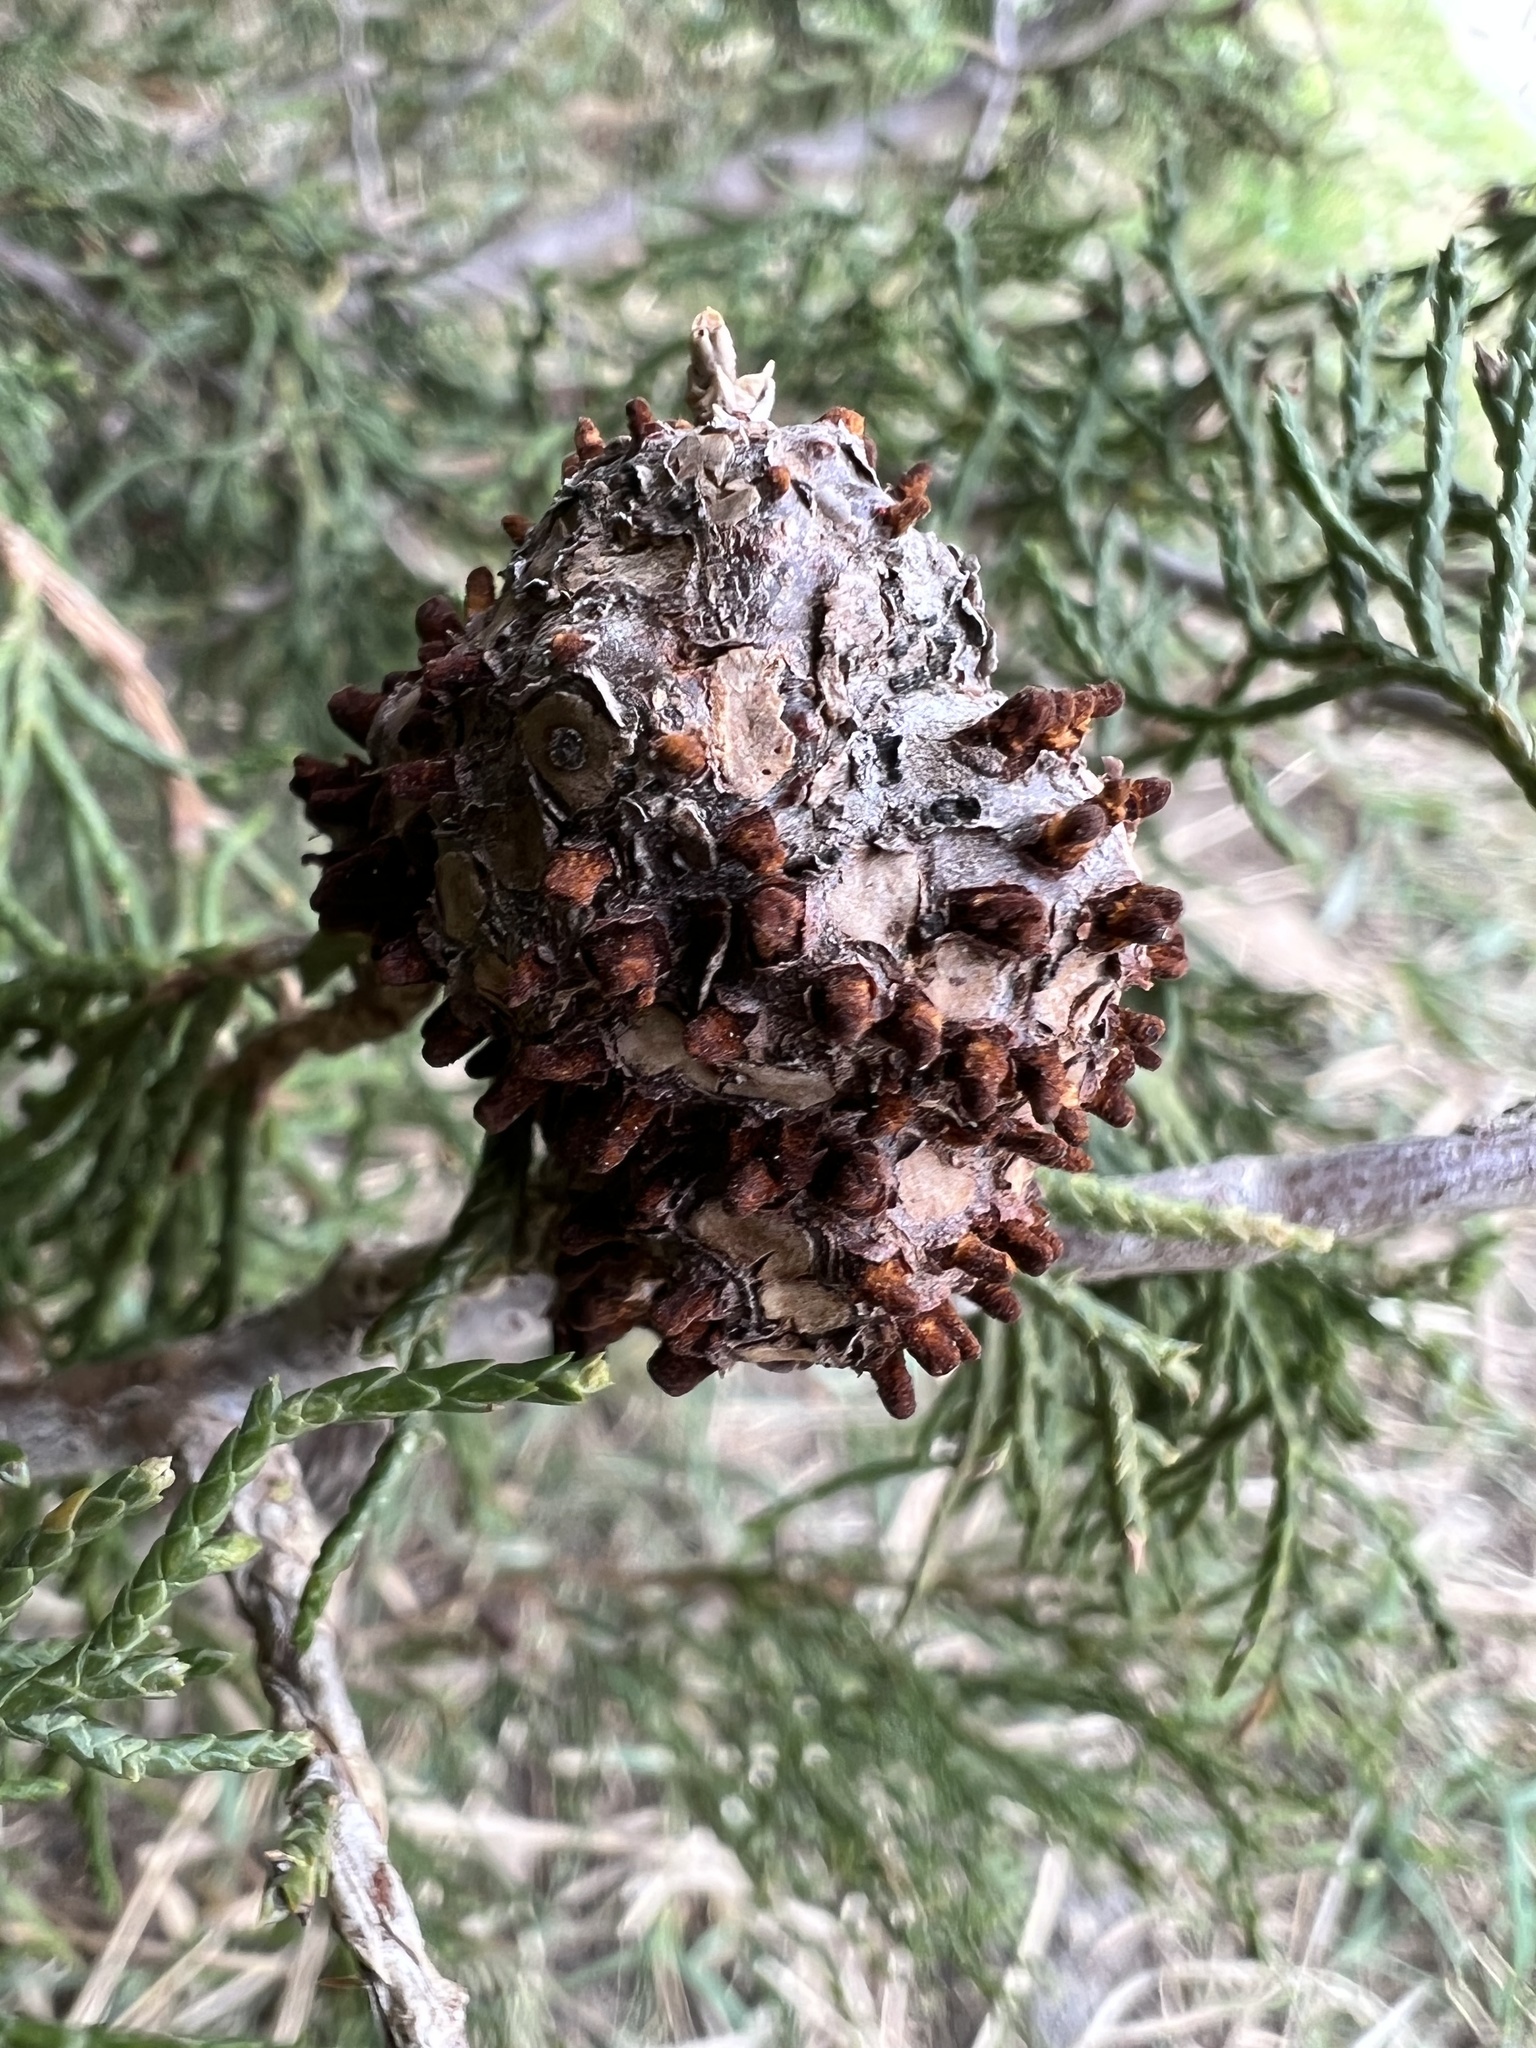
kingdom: Fungi
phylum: Basidiomycota
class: Pucciniomycetes
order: Pucciniales
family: Gymnosporangiaceae
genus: Gymnosporangium
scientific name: Gymnosporangium juniperi-virginianae
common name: Juniper-apple rust
